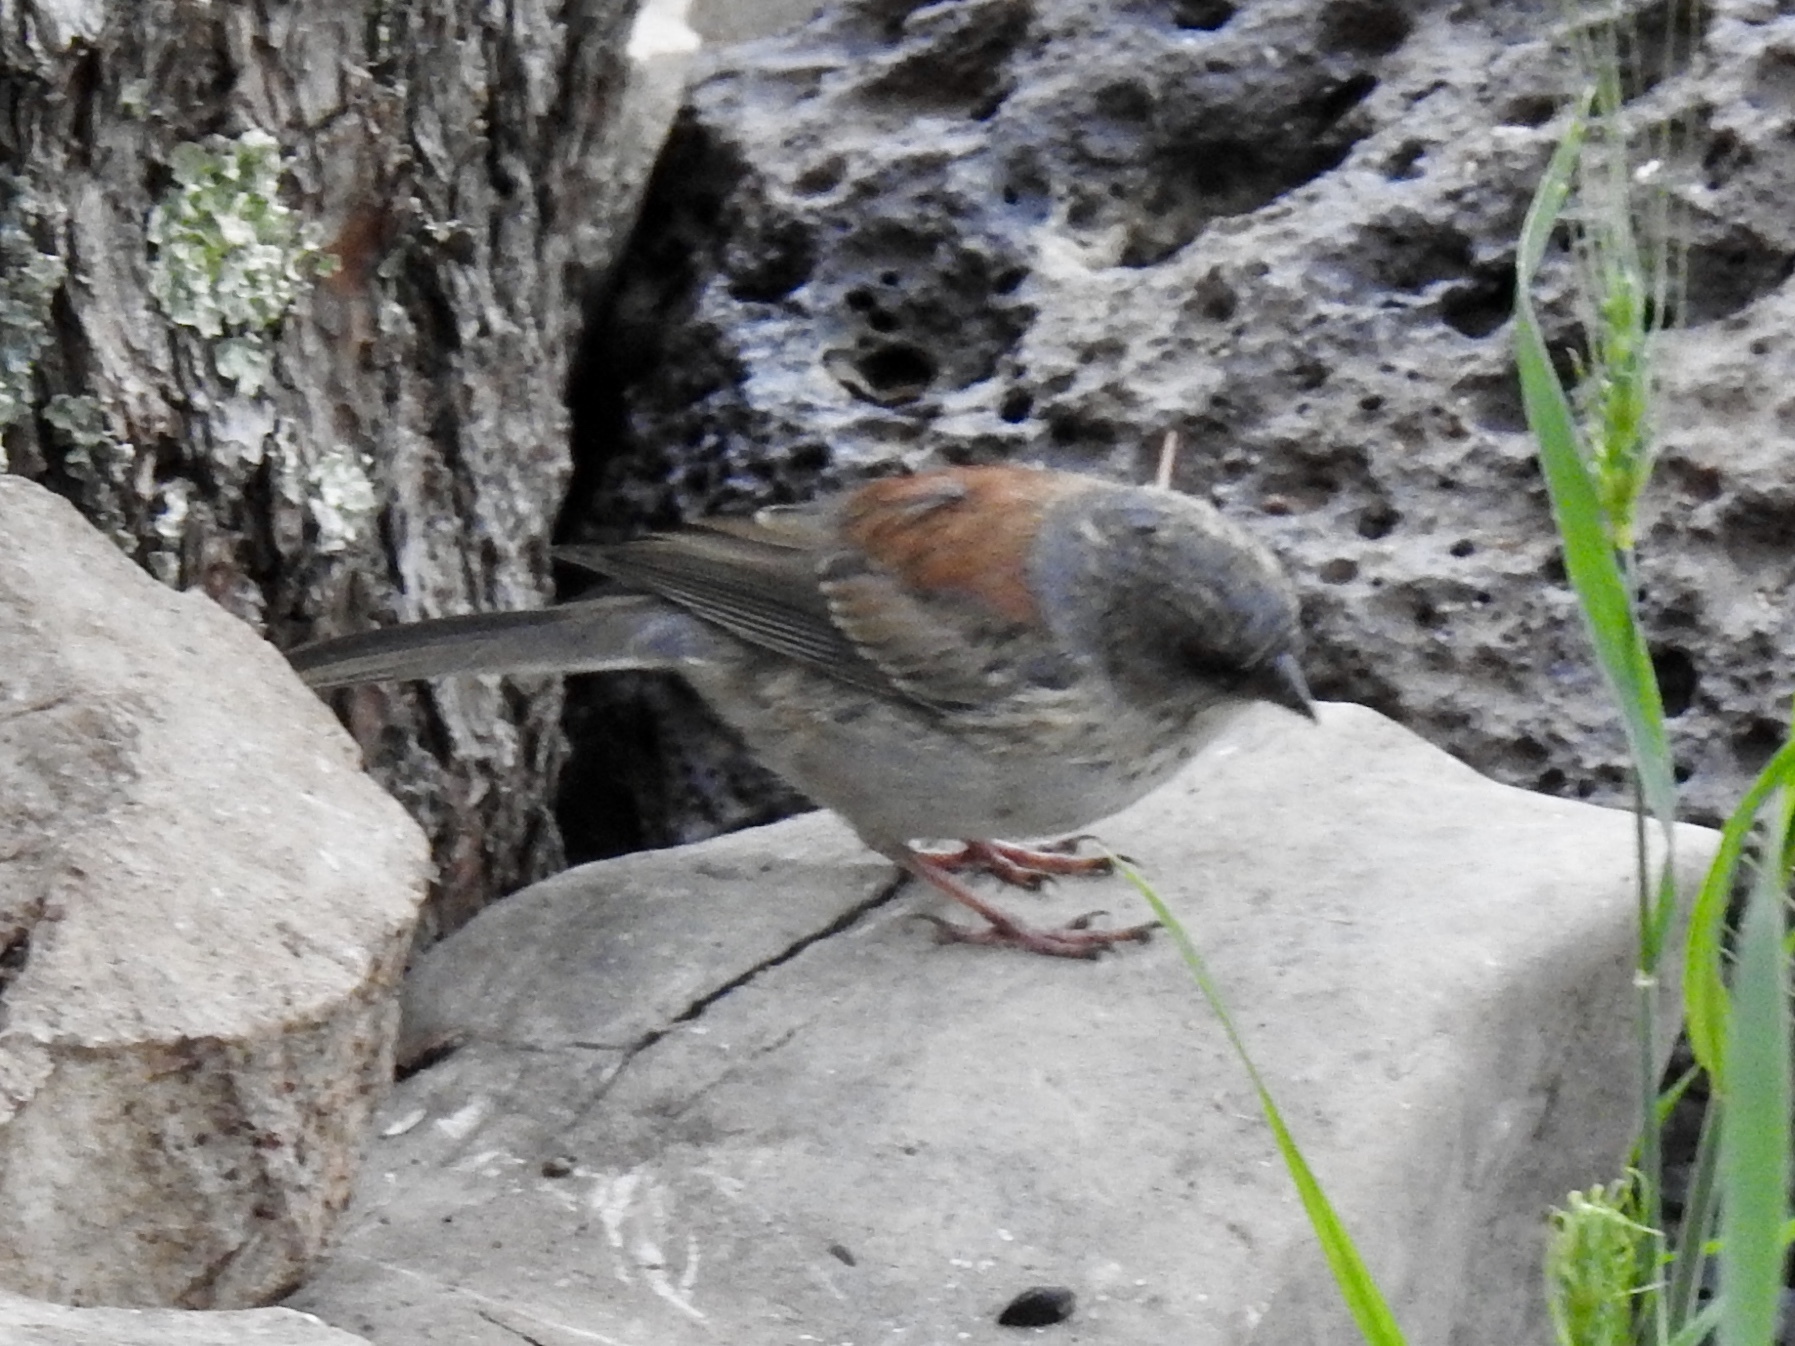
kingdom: Animalia
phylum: Chordata
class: Aves
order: Passeriformes
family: Passerellidae
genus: Junco
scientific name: Junco hyemalis
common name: Dark-eyed junco
